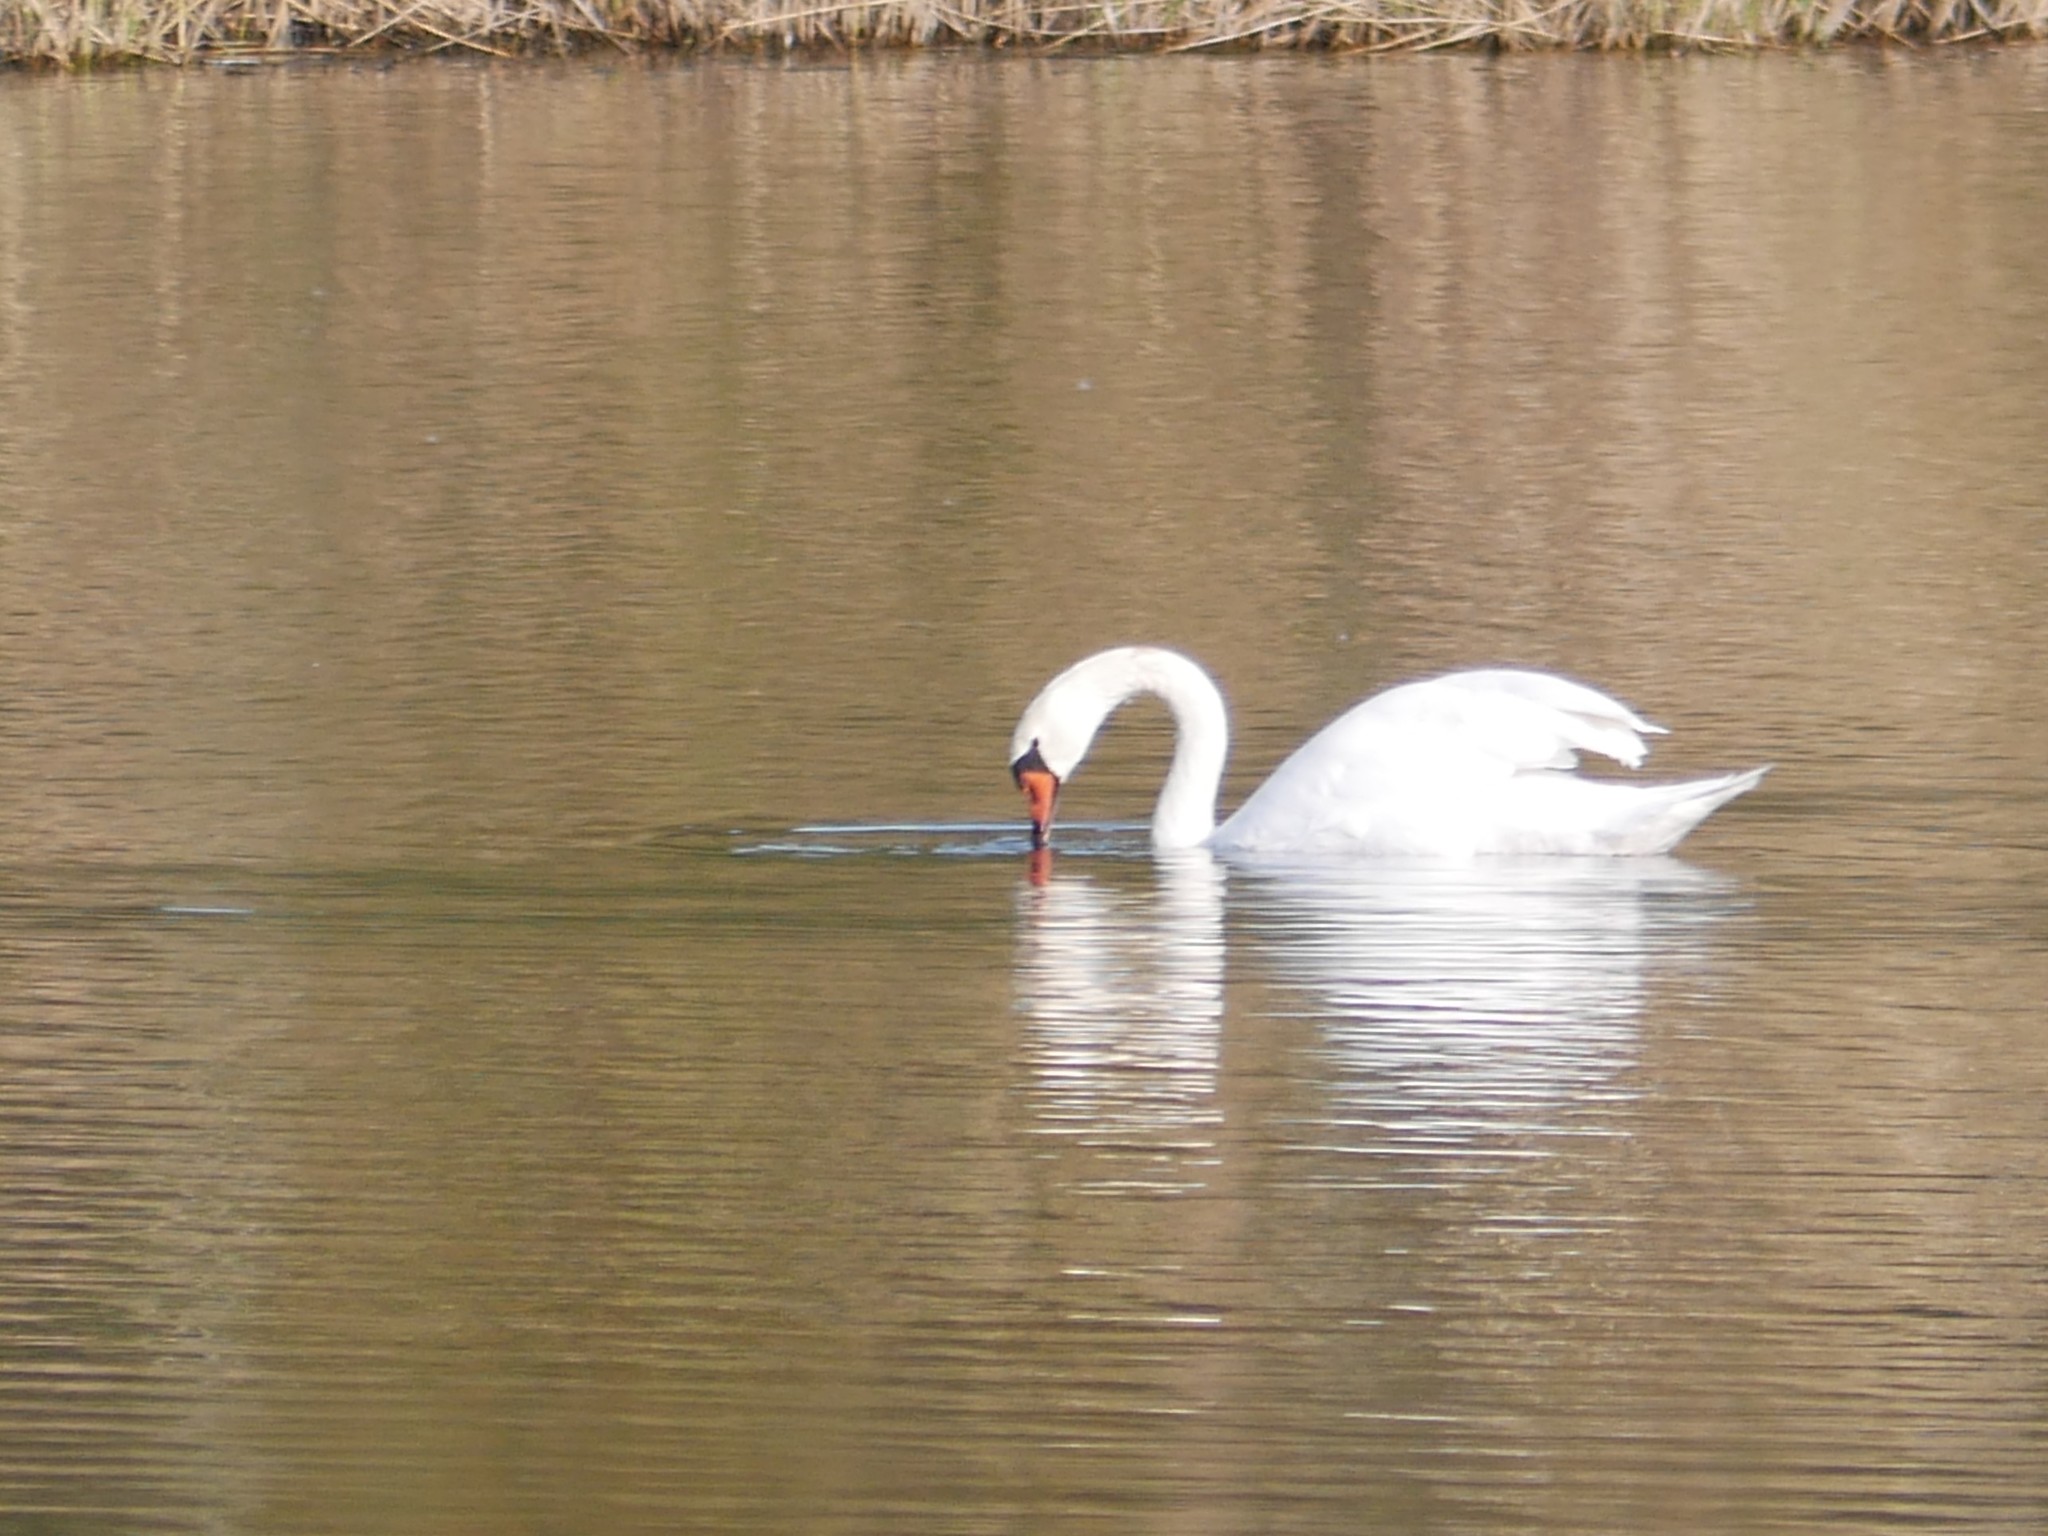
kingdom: Animalia
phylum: Chordata
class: Aves
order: Anseriformes
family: Anatidae
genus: Cygnus
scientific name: Cygnus olor
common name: Mute swan
